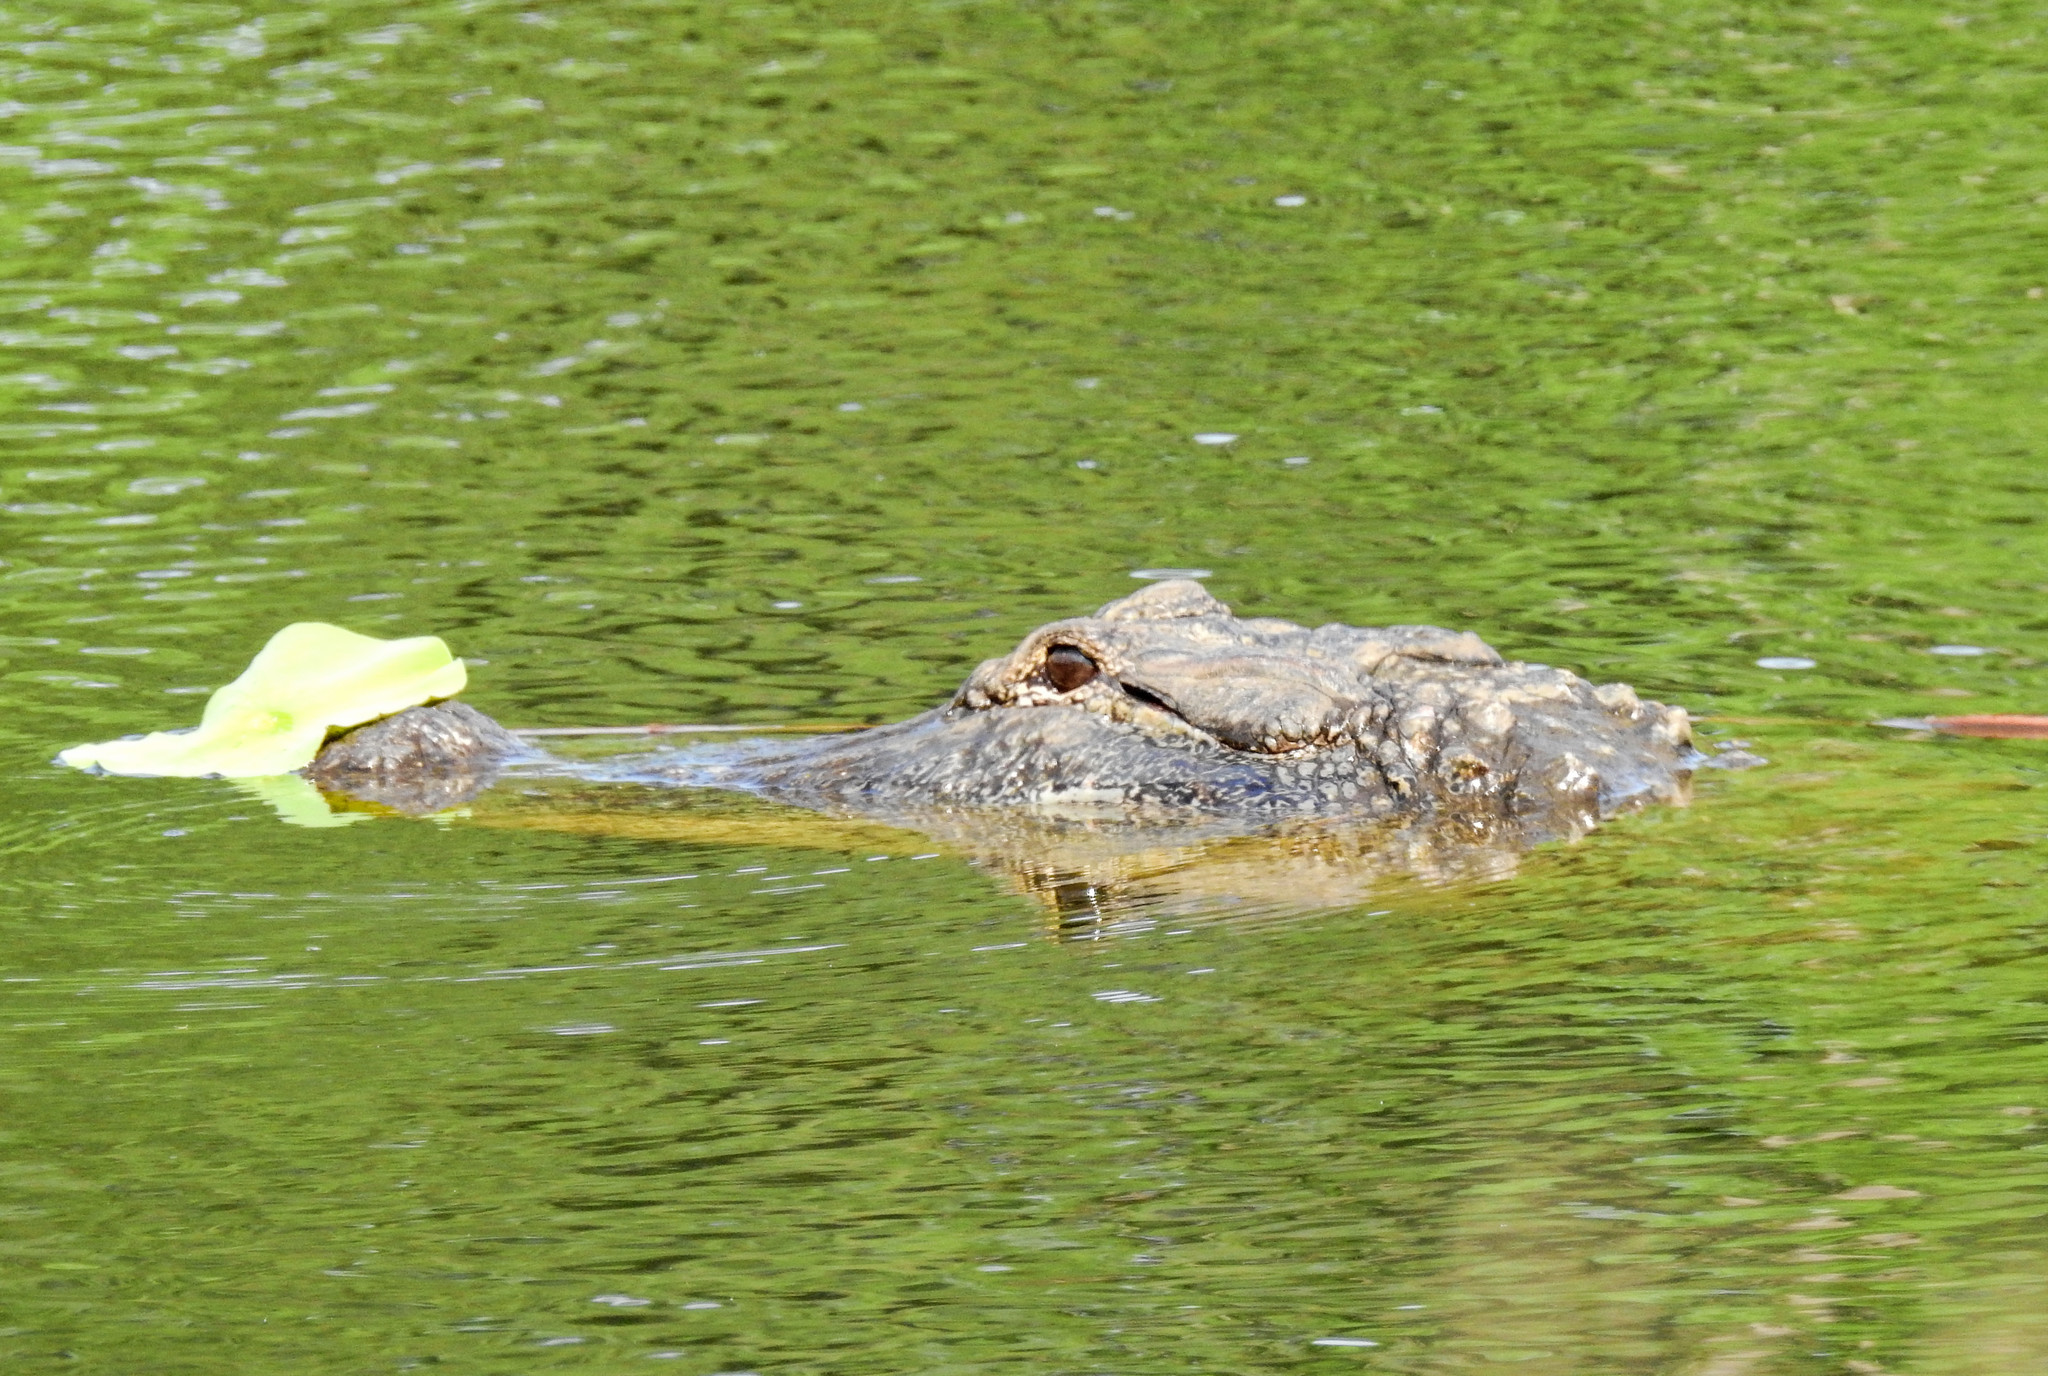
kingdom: Animalia
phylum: Chordata
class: Crocodylia
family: Alligatoridae
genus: Alligator
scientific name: Alligator mississippiensis
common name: American alligator
